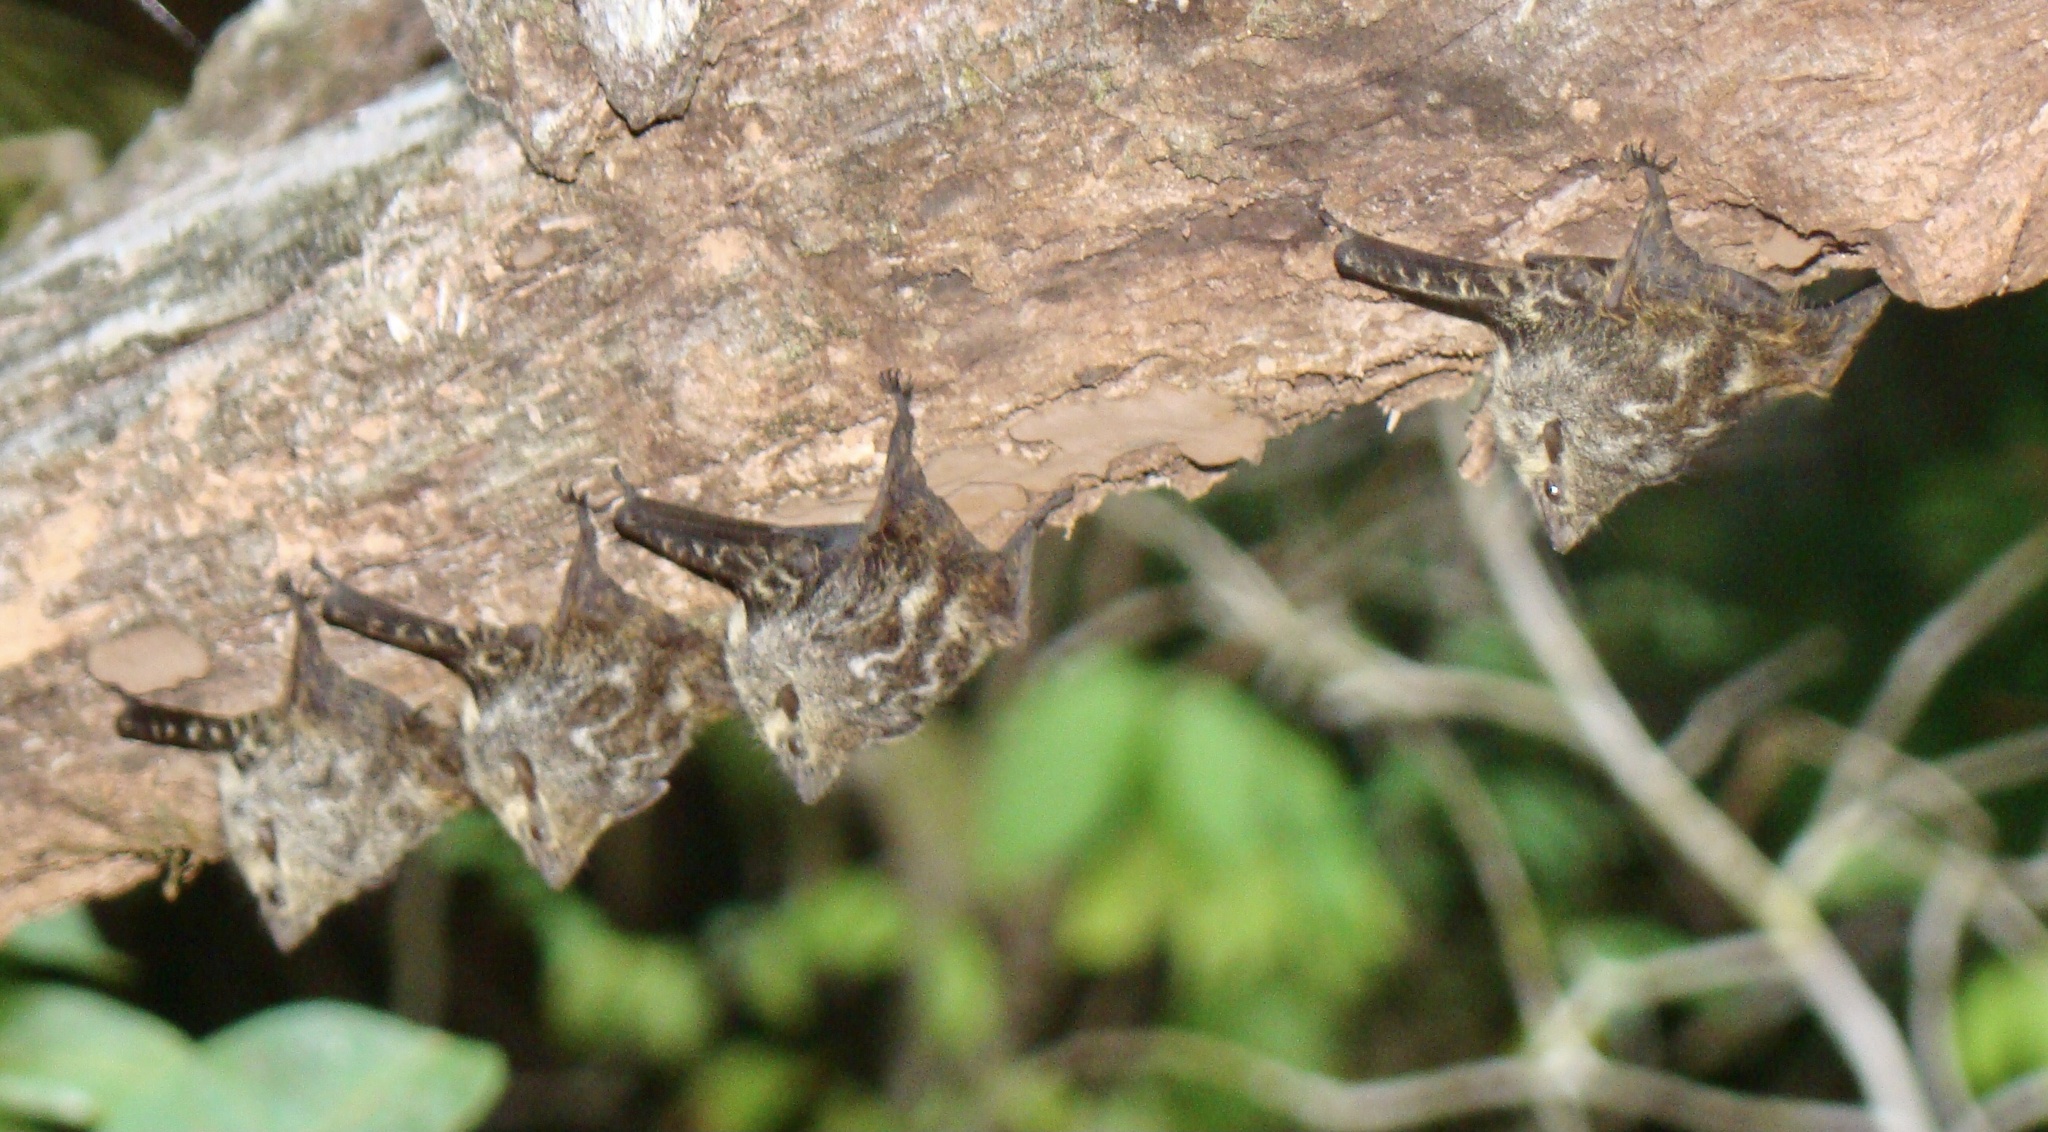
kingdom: Animalia
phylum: Chordata
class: Mammalia
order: Chiroptera
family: Emballonuridae
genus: Rhynchonycteris
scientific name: Rhynchonycteris naso
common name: Proboscis bat
